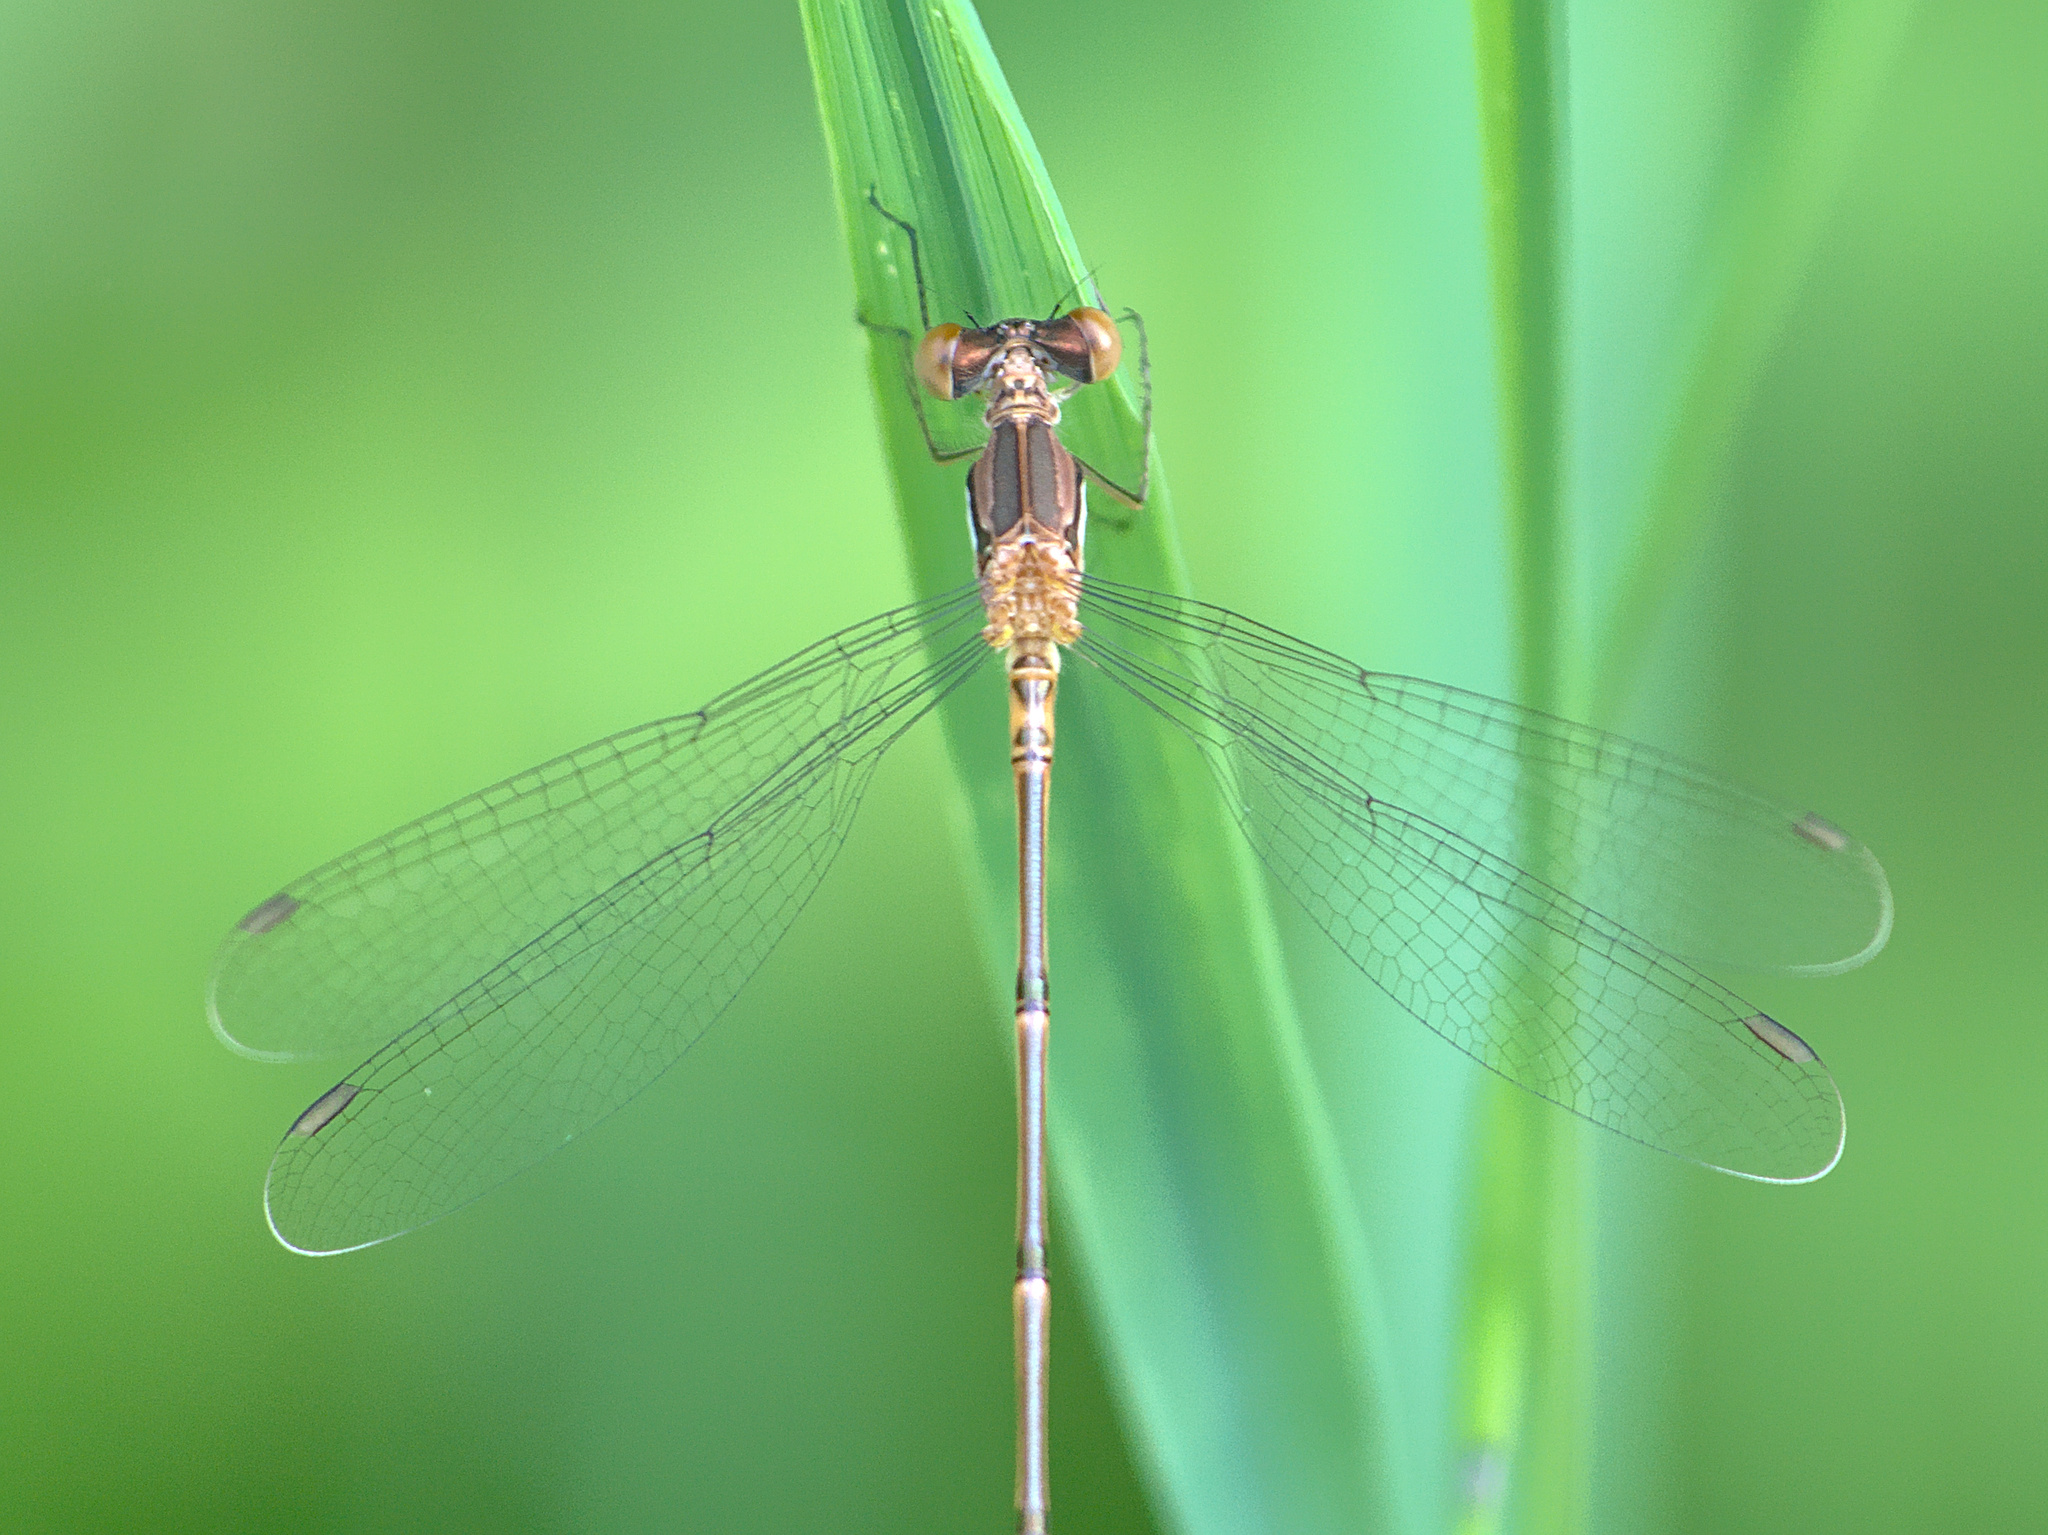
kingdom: Animalia
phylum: Arthropoda
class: Insecta
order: Odonata
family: Lestidae
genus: Lestes
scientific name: Lestes rectangularis
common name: Slender spreadwing
